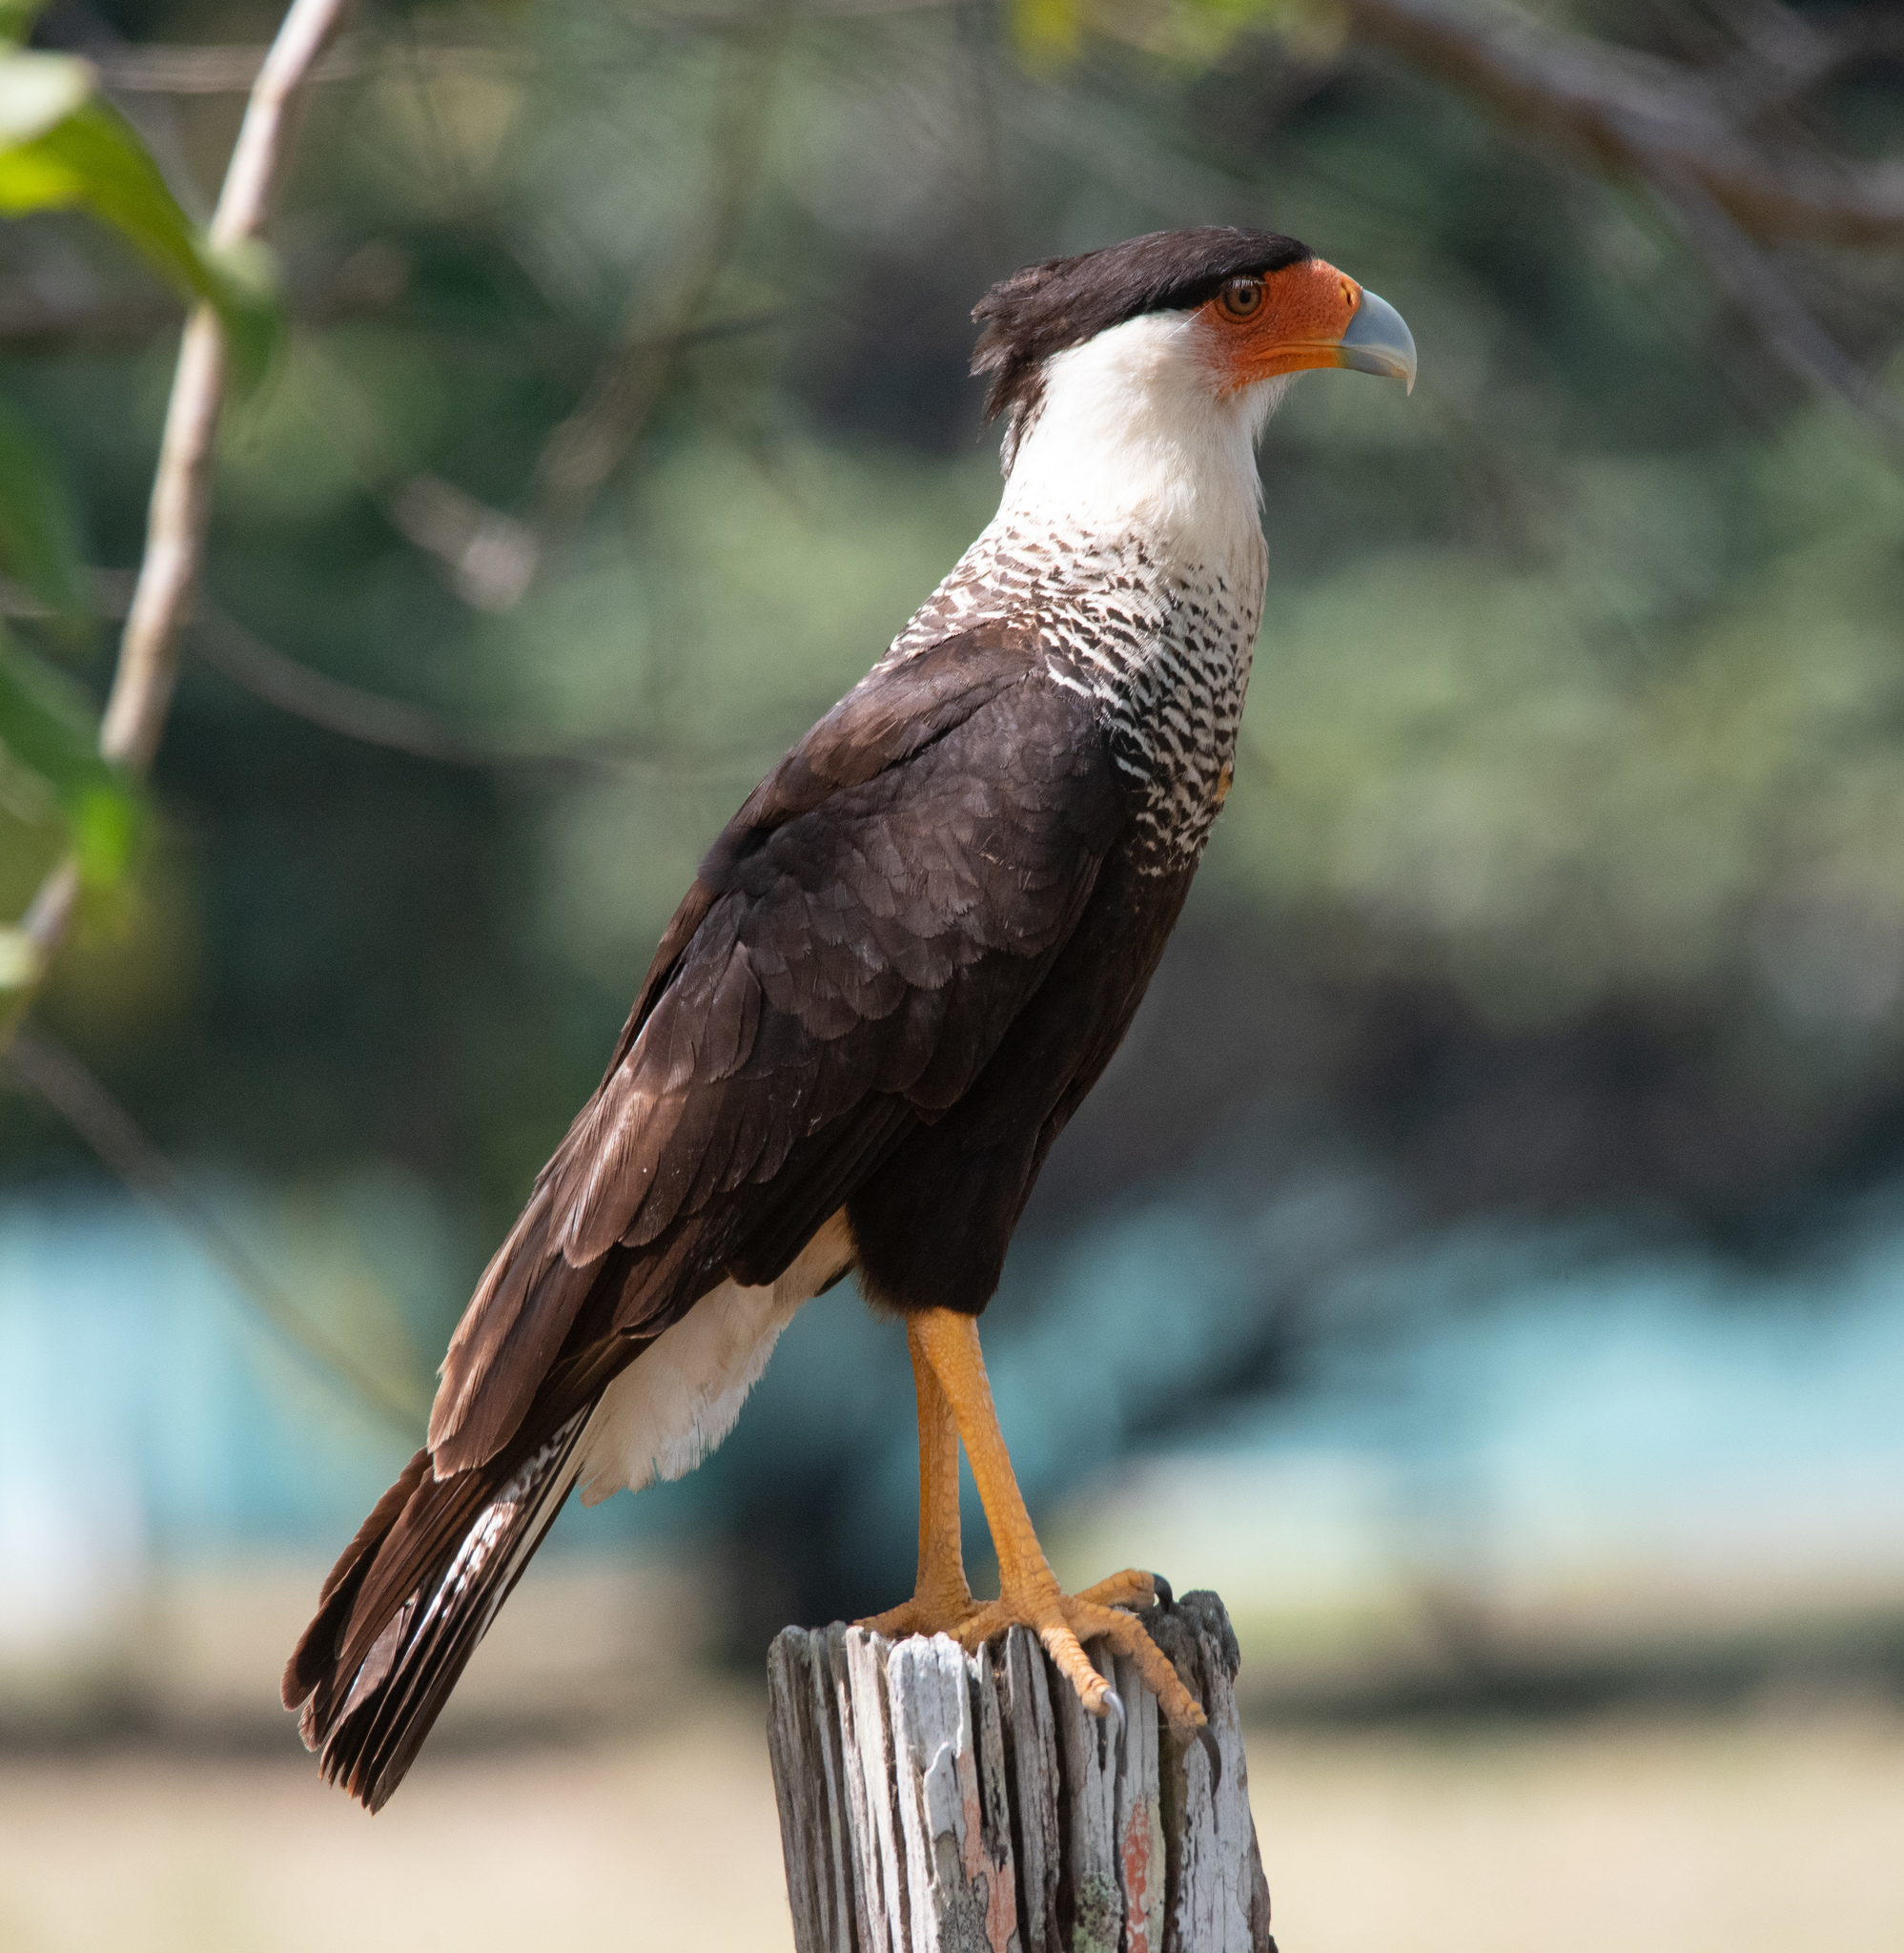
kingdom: Animalia
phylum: Chordata
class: Aves
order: Falconiformes
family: Falconidae
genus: Caracara
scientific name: Caracara plancus
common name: Southern caracara
